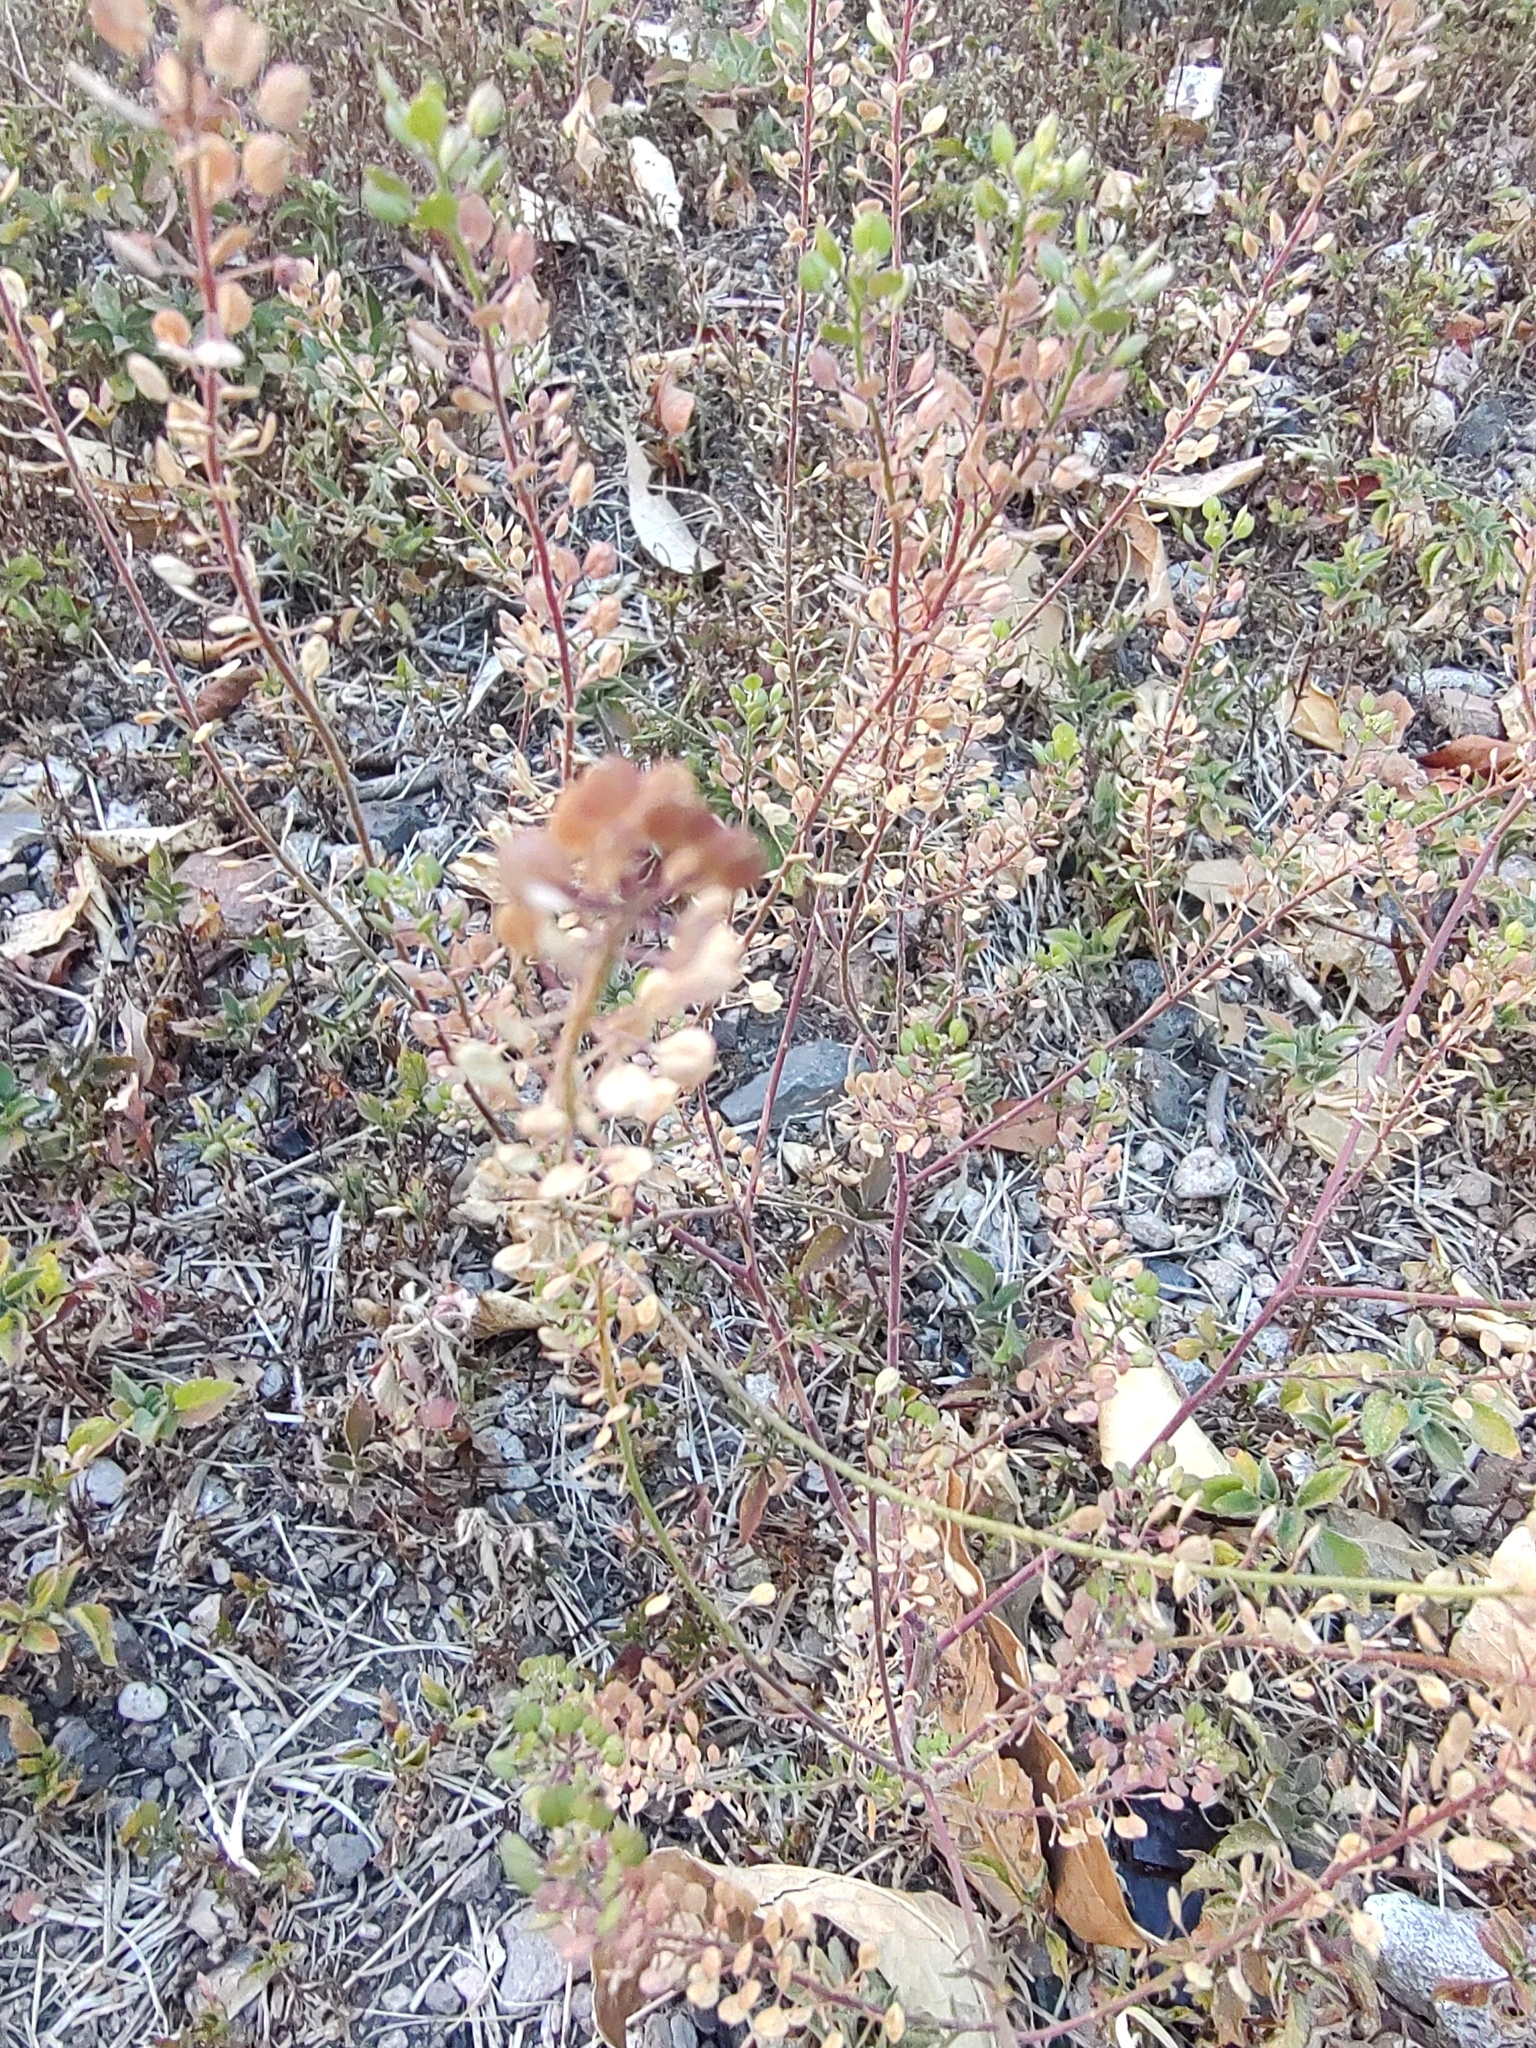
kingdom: Plantae
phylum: Tracheophyta
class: Magnoliopsida
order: Brassicales
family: Brassicaceae
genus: Lepidium
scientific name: Lepidium virginicum
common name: Least pepperwort
